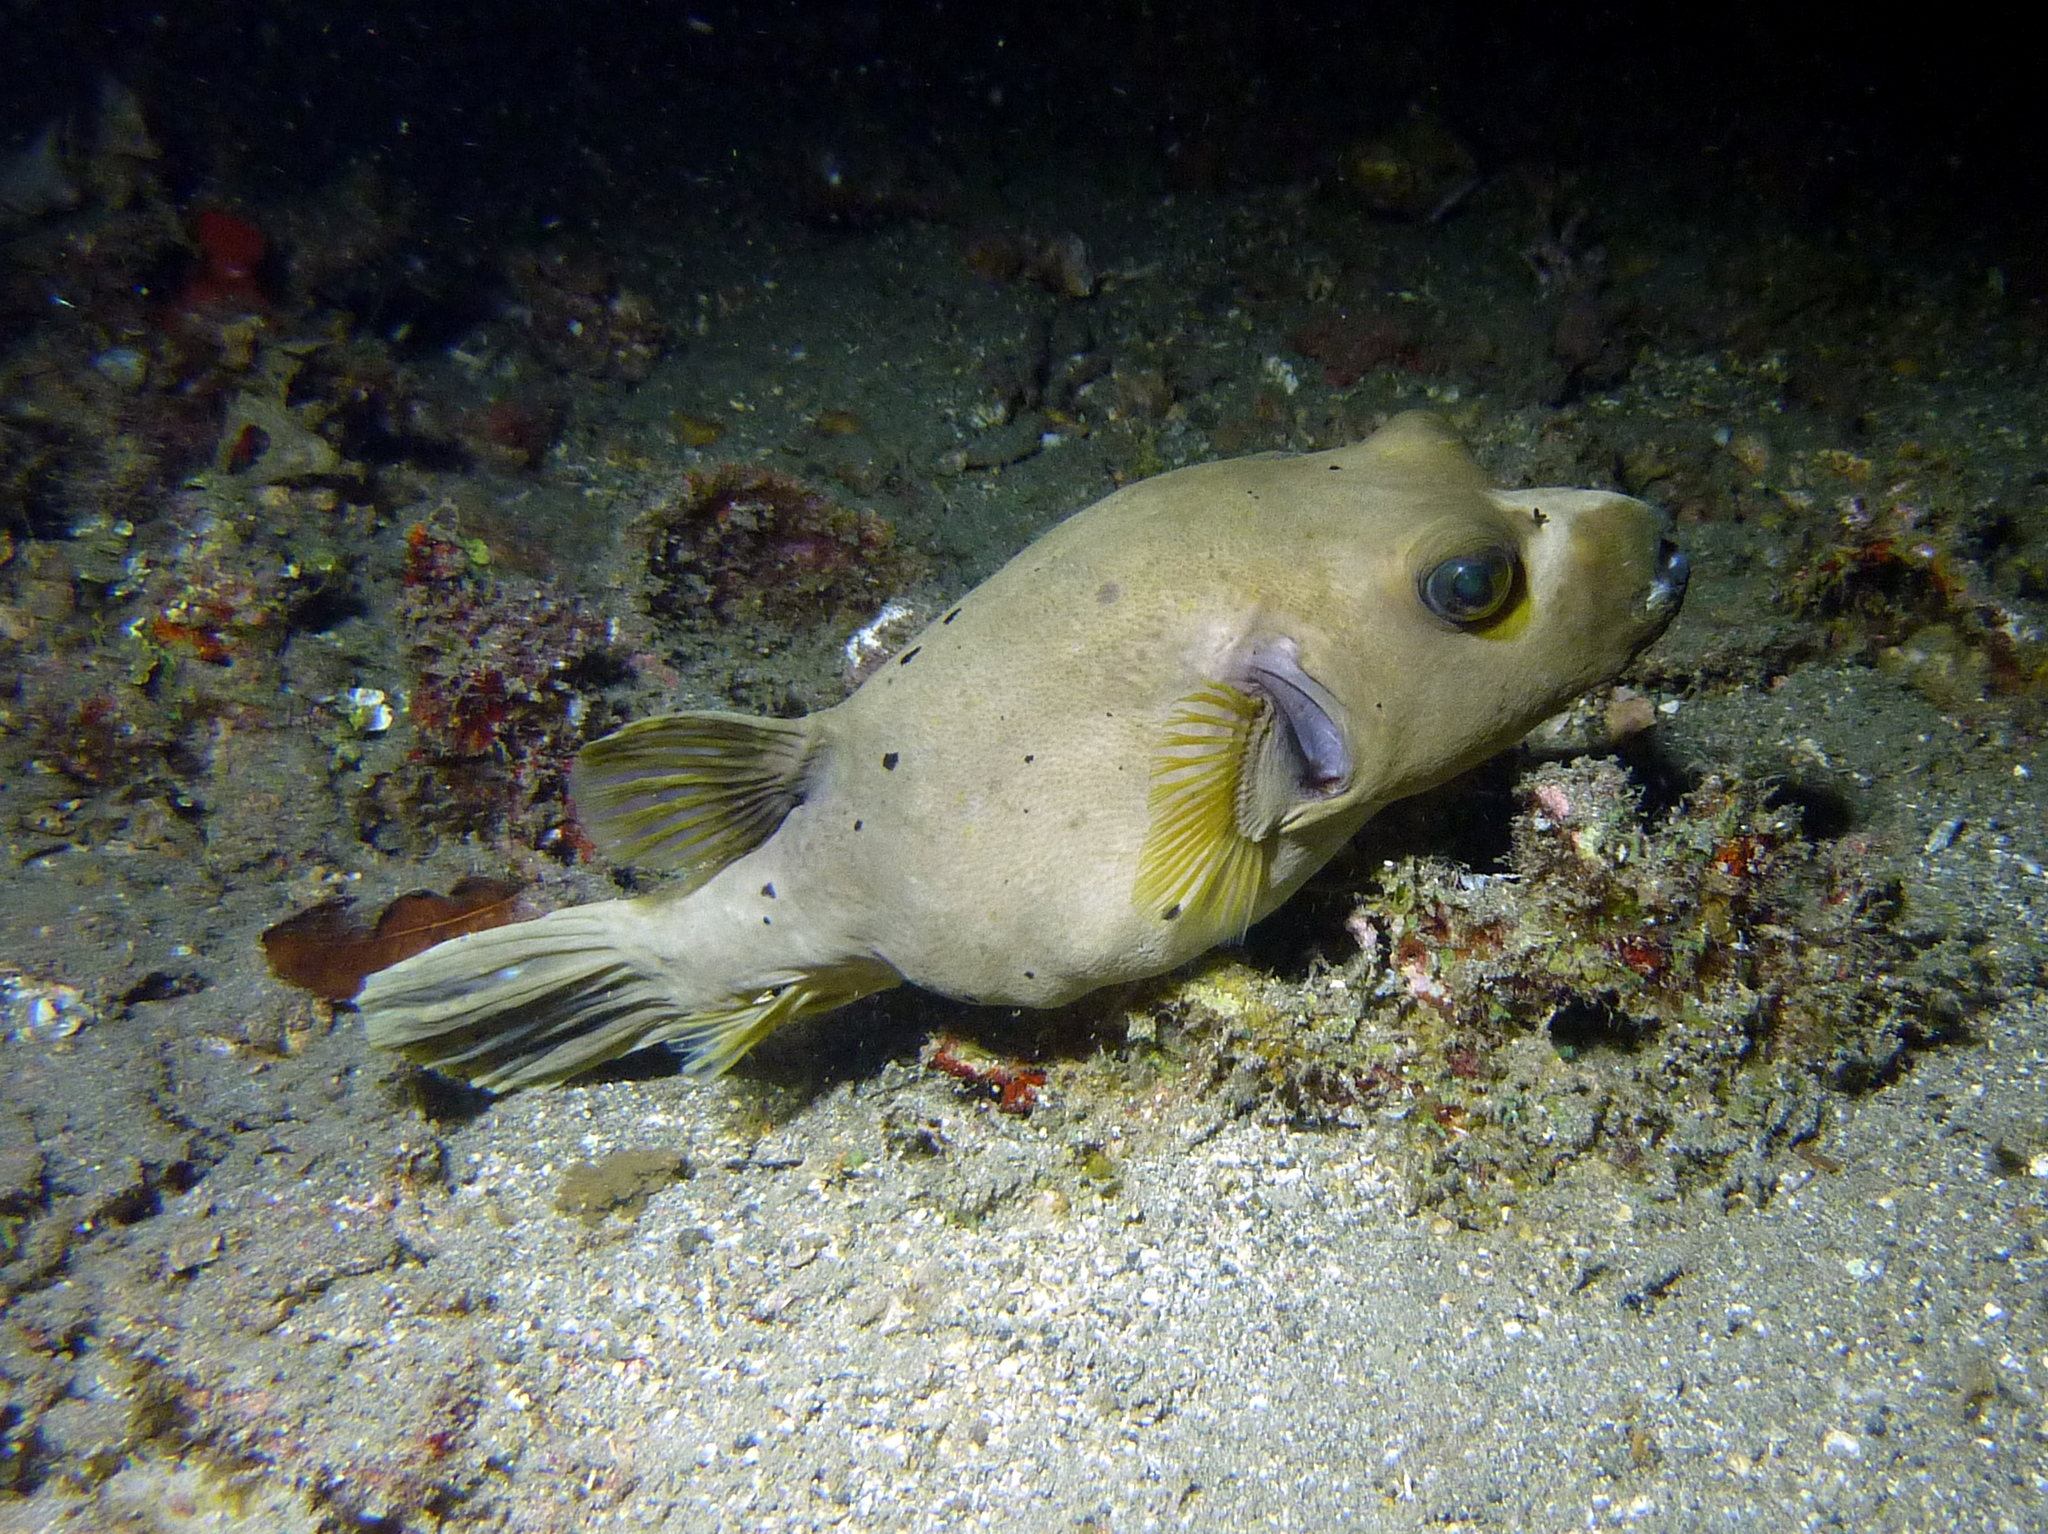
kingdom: Animalia
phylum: Chordata
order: Tetraodontiformes
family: Tetraodontidae
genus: Arothron
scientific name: Arothron nigropunctatus
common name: Black spotted blow fish
